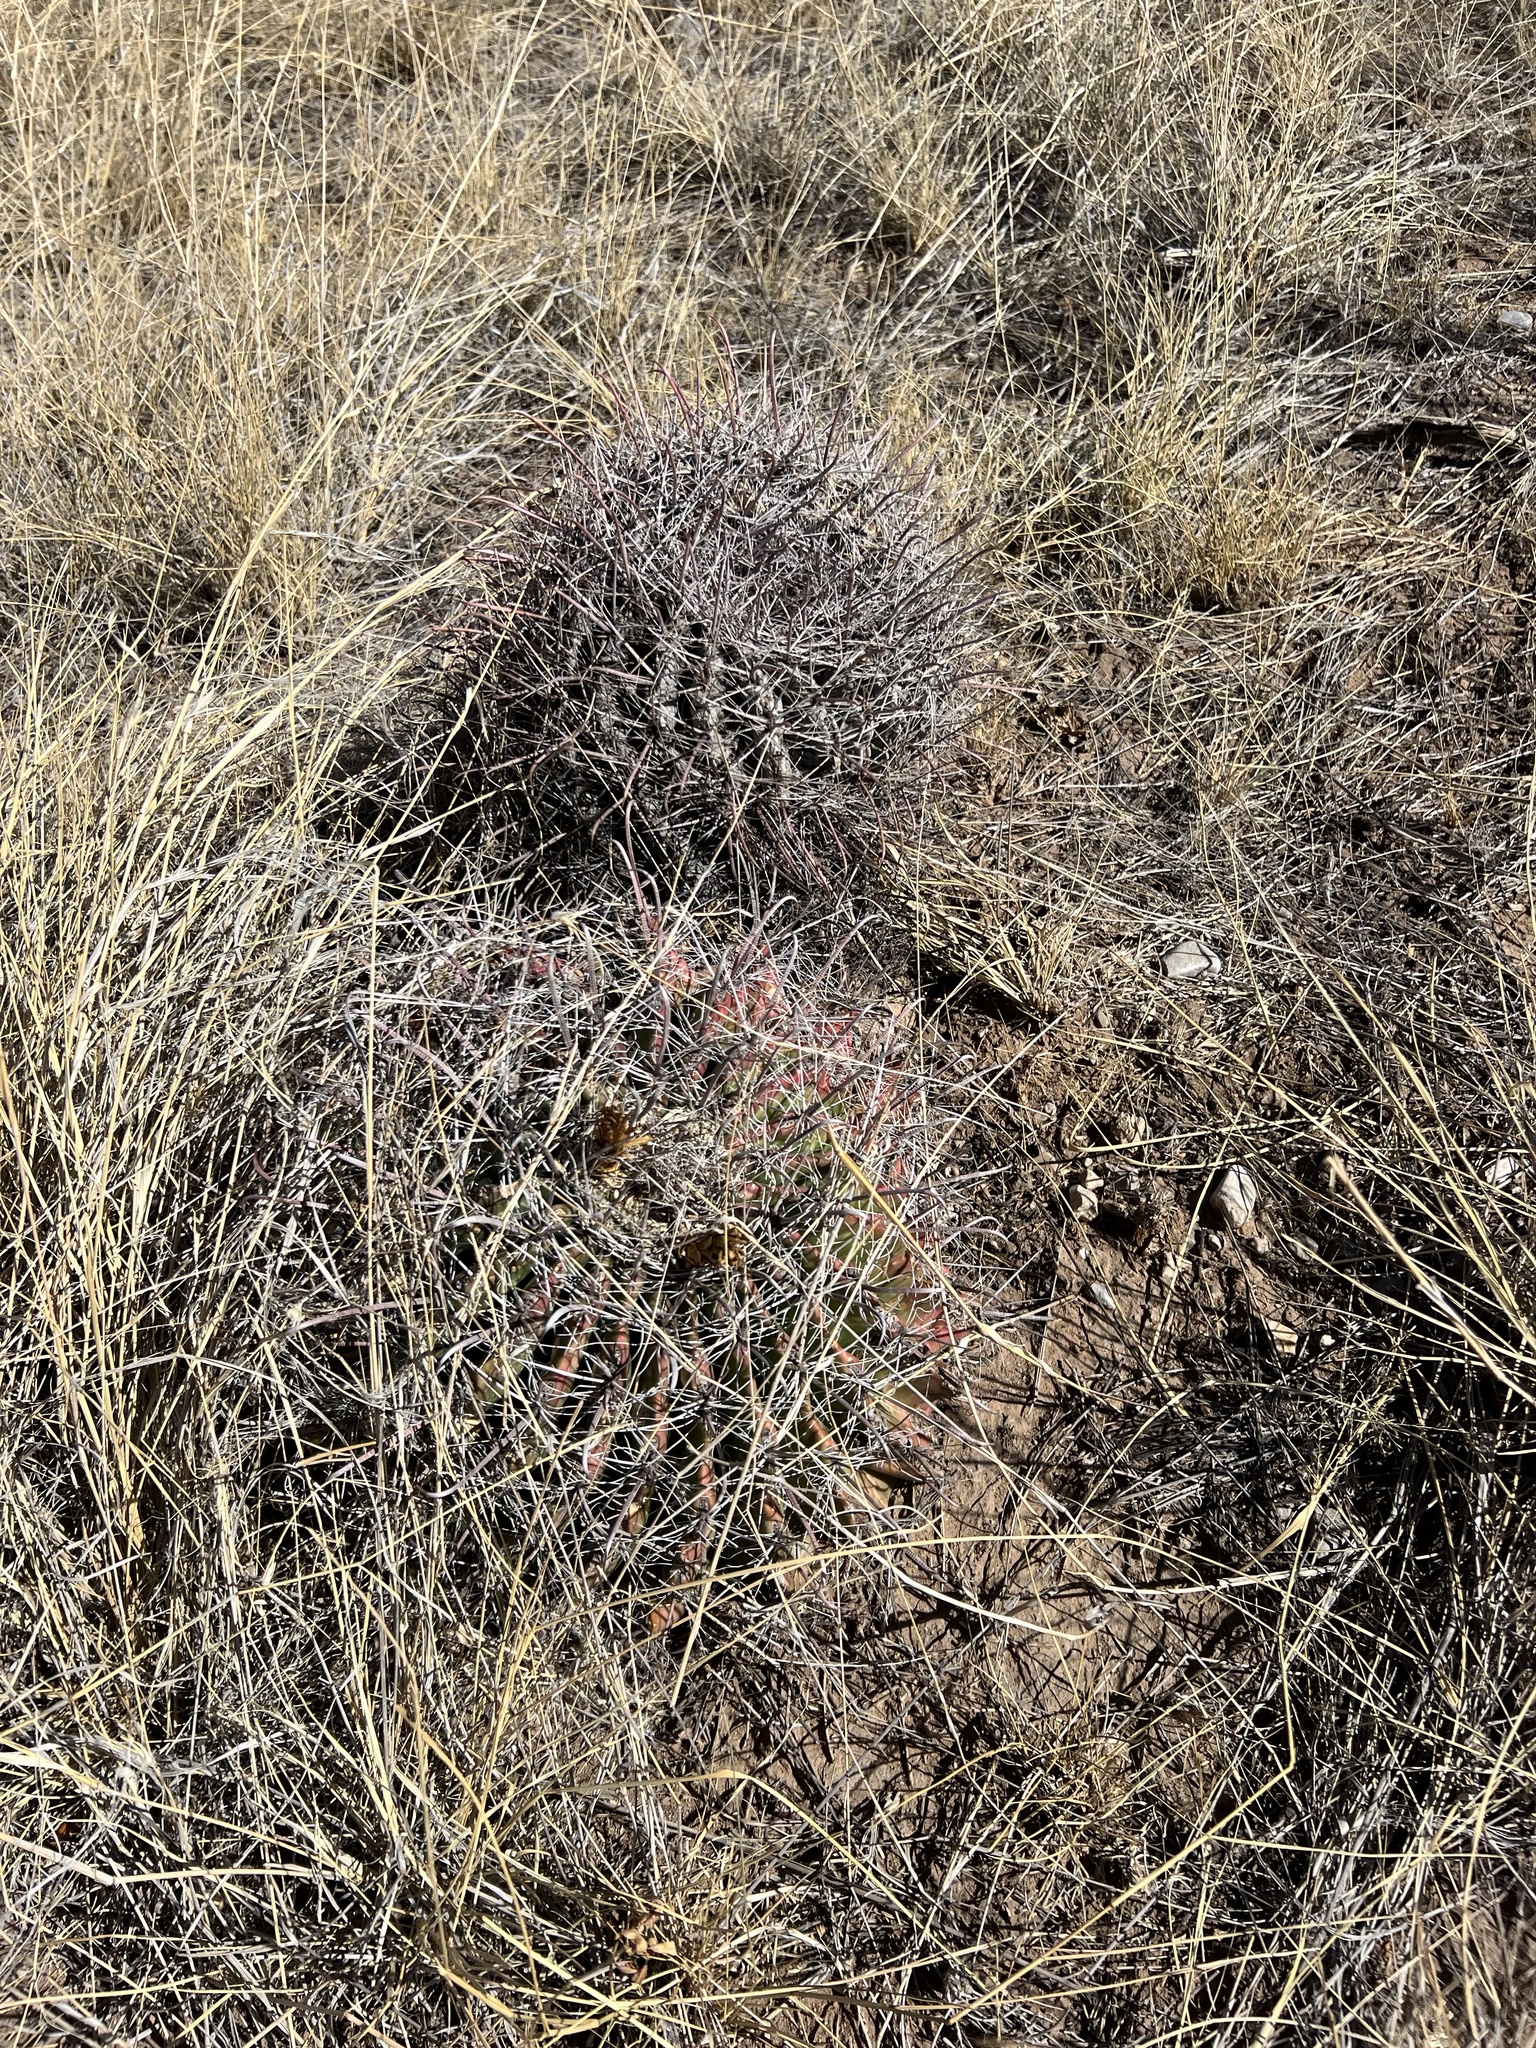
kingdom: Plantae
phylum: Tracheophyta
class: Magnoliopsida
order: Caryophyllales
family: Cactaceae
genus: Ferocactus
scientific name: Ferocactus wislizeni
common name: Candy barrel cactus
